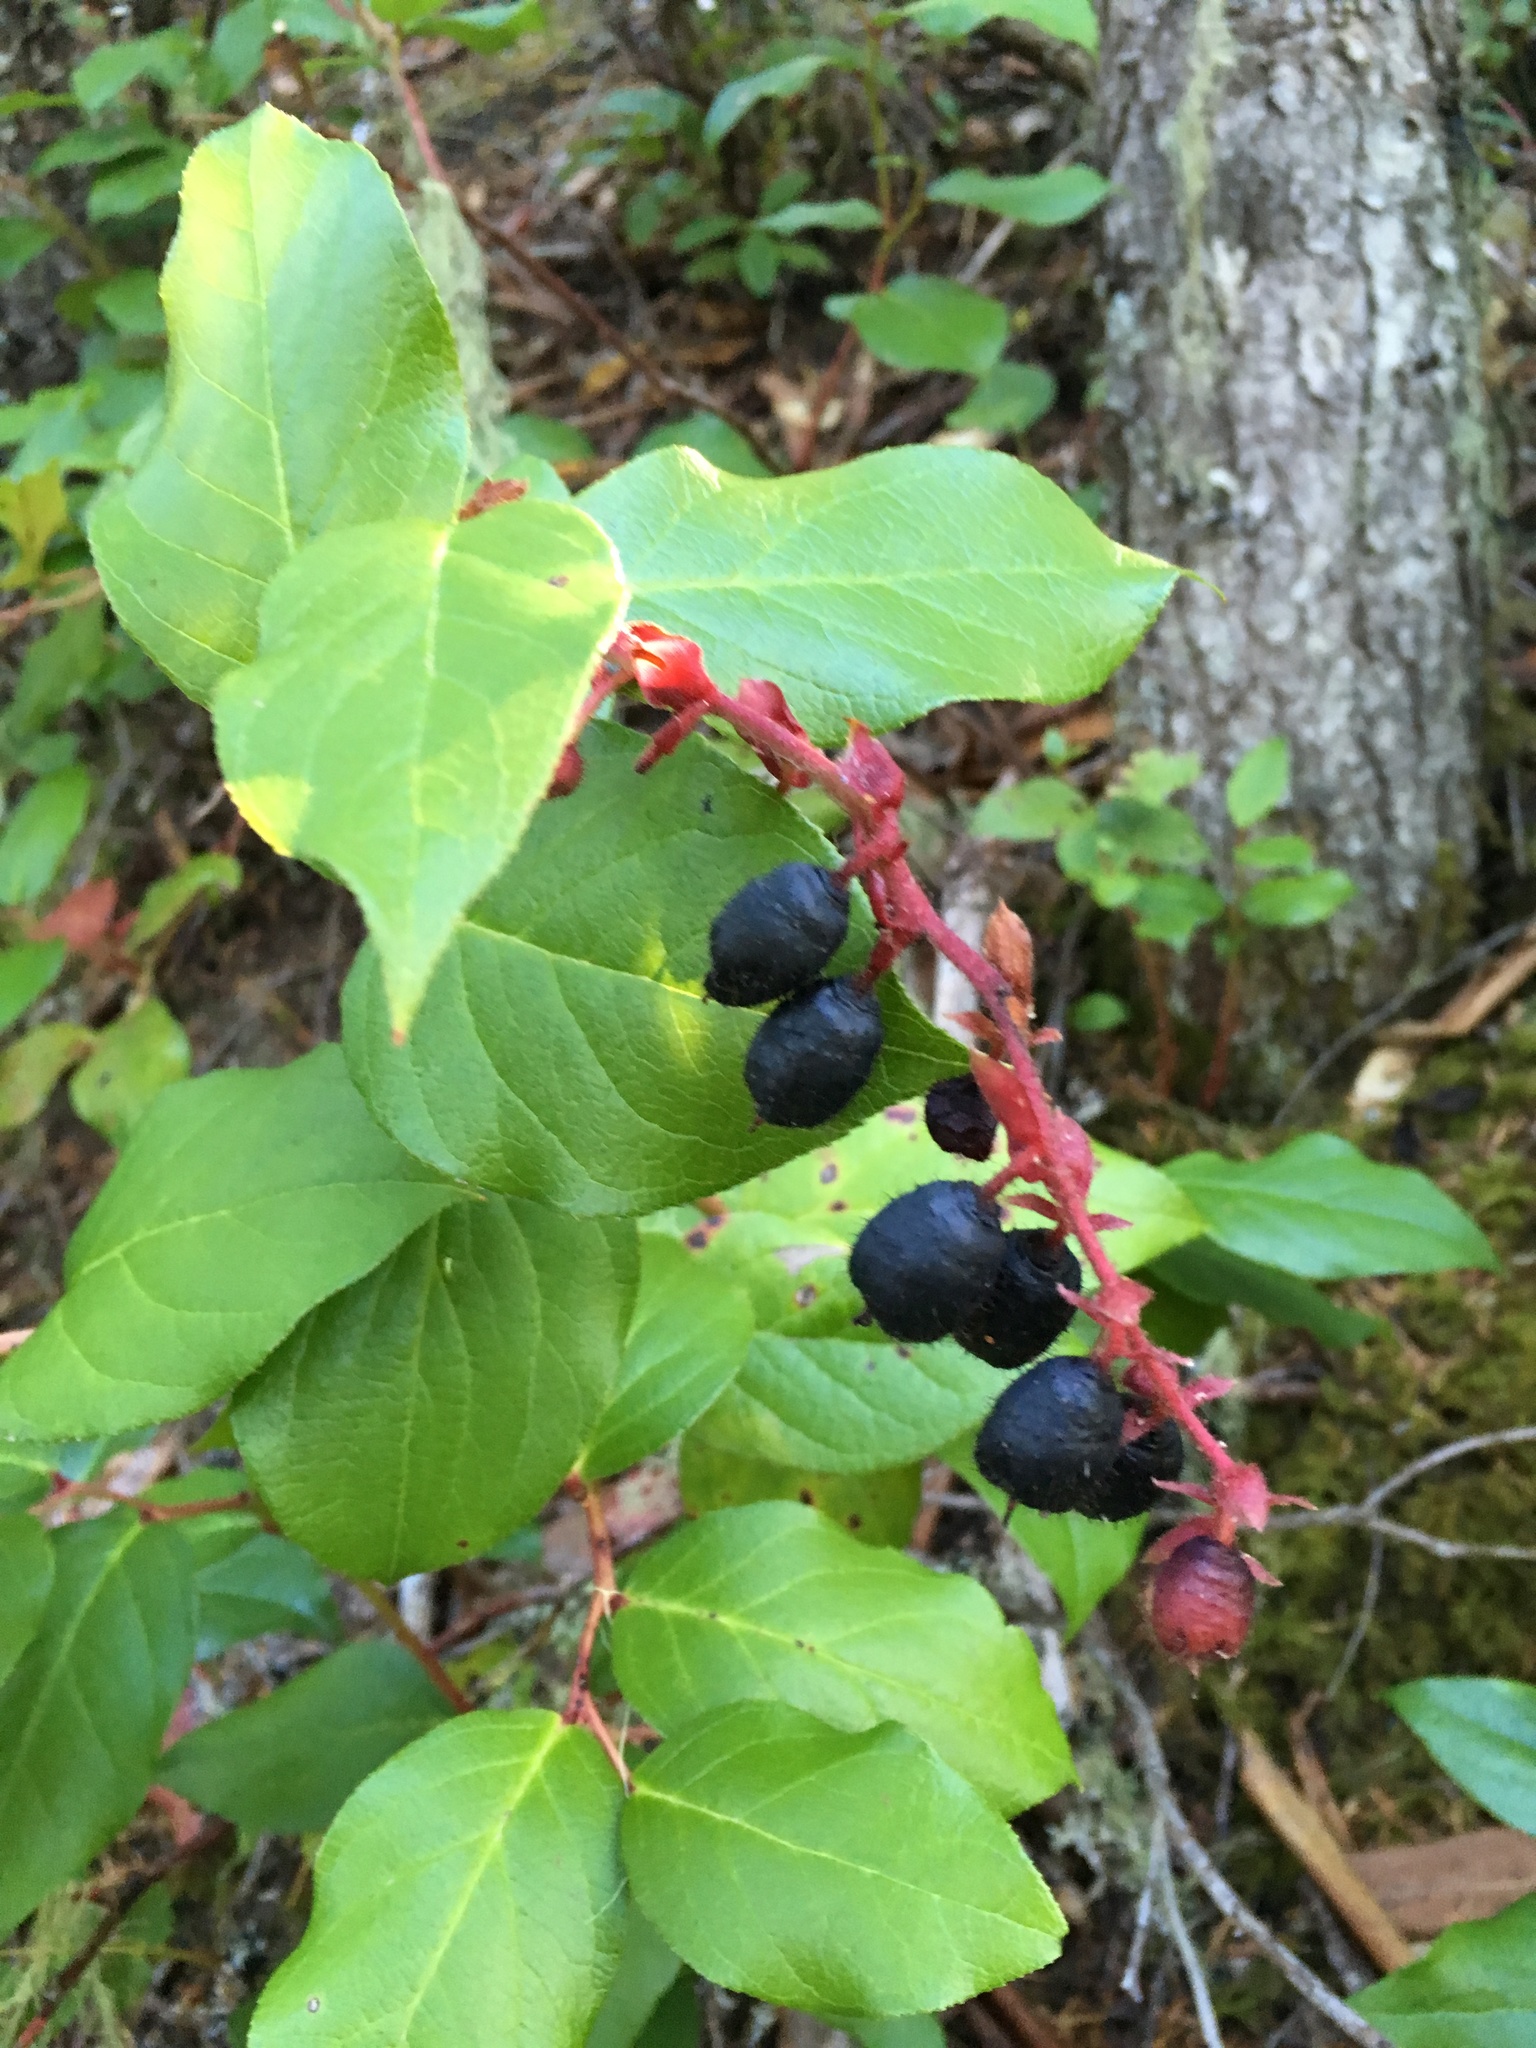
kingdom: Plantae
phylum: Tracheophyta
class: Magnoliopsida
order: Ericales
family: Ericaceae
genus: Gaultheria
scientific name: Gaultheria shallon
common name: Shallon
